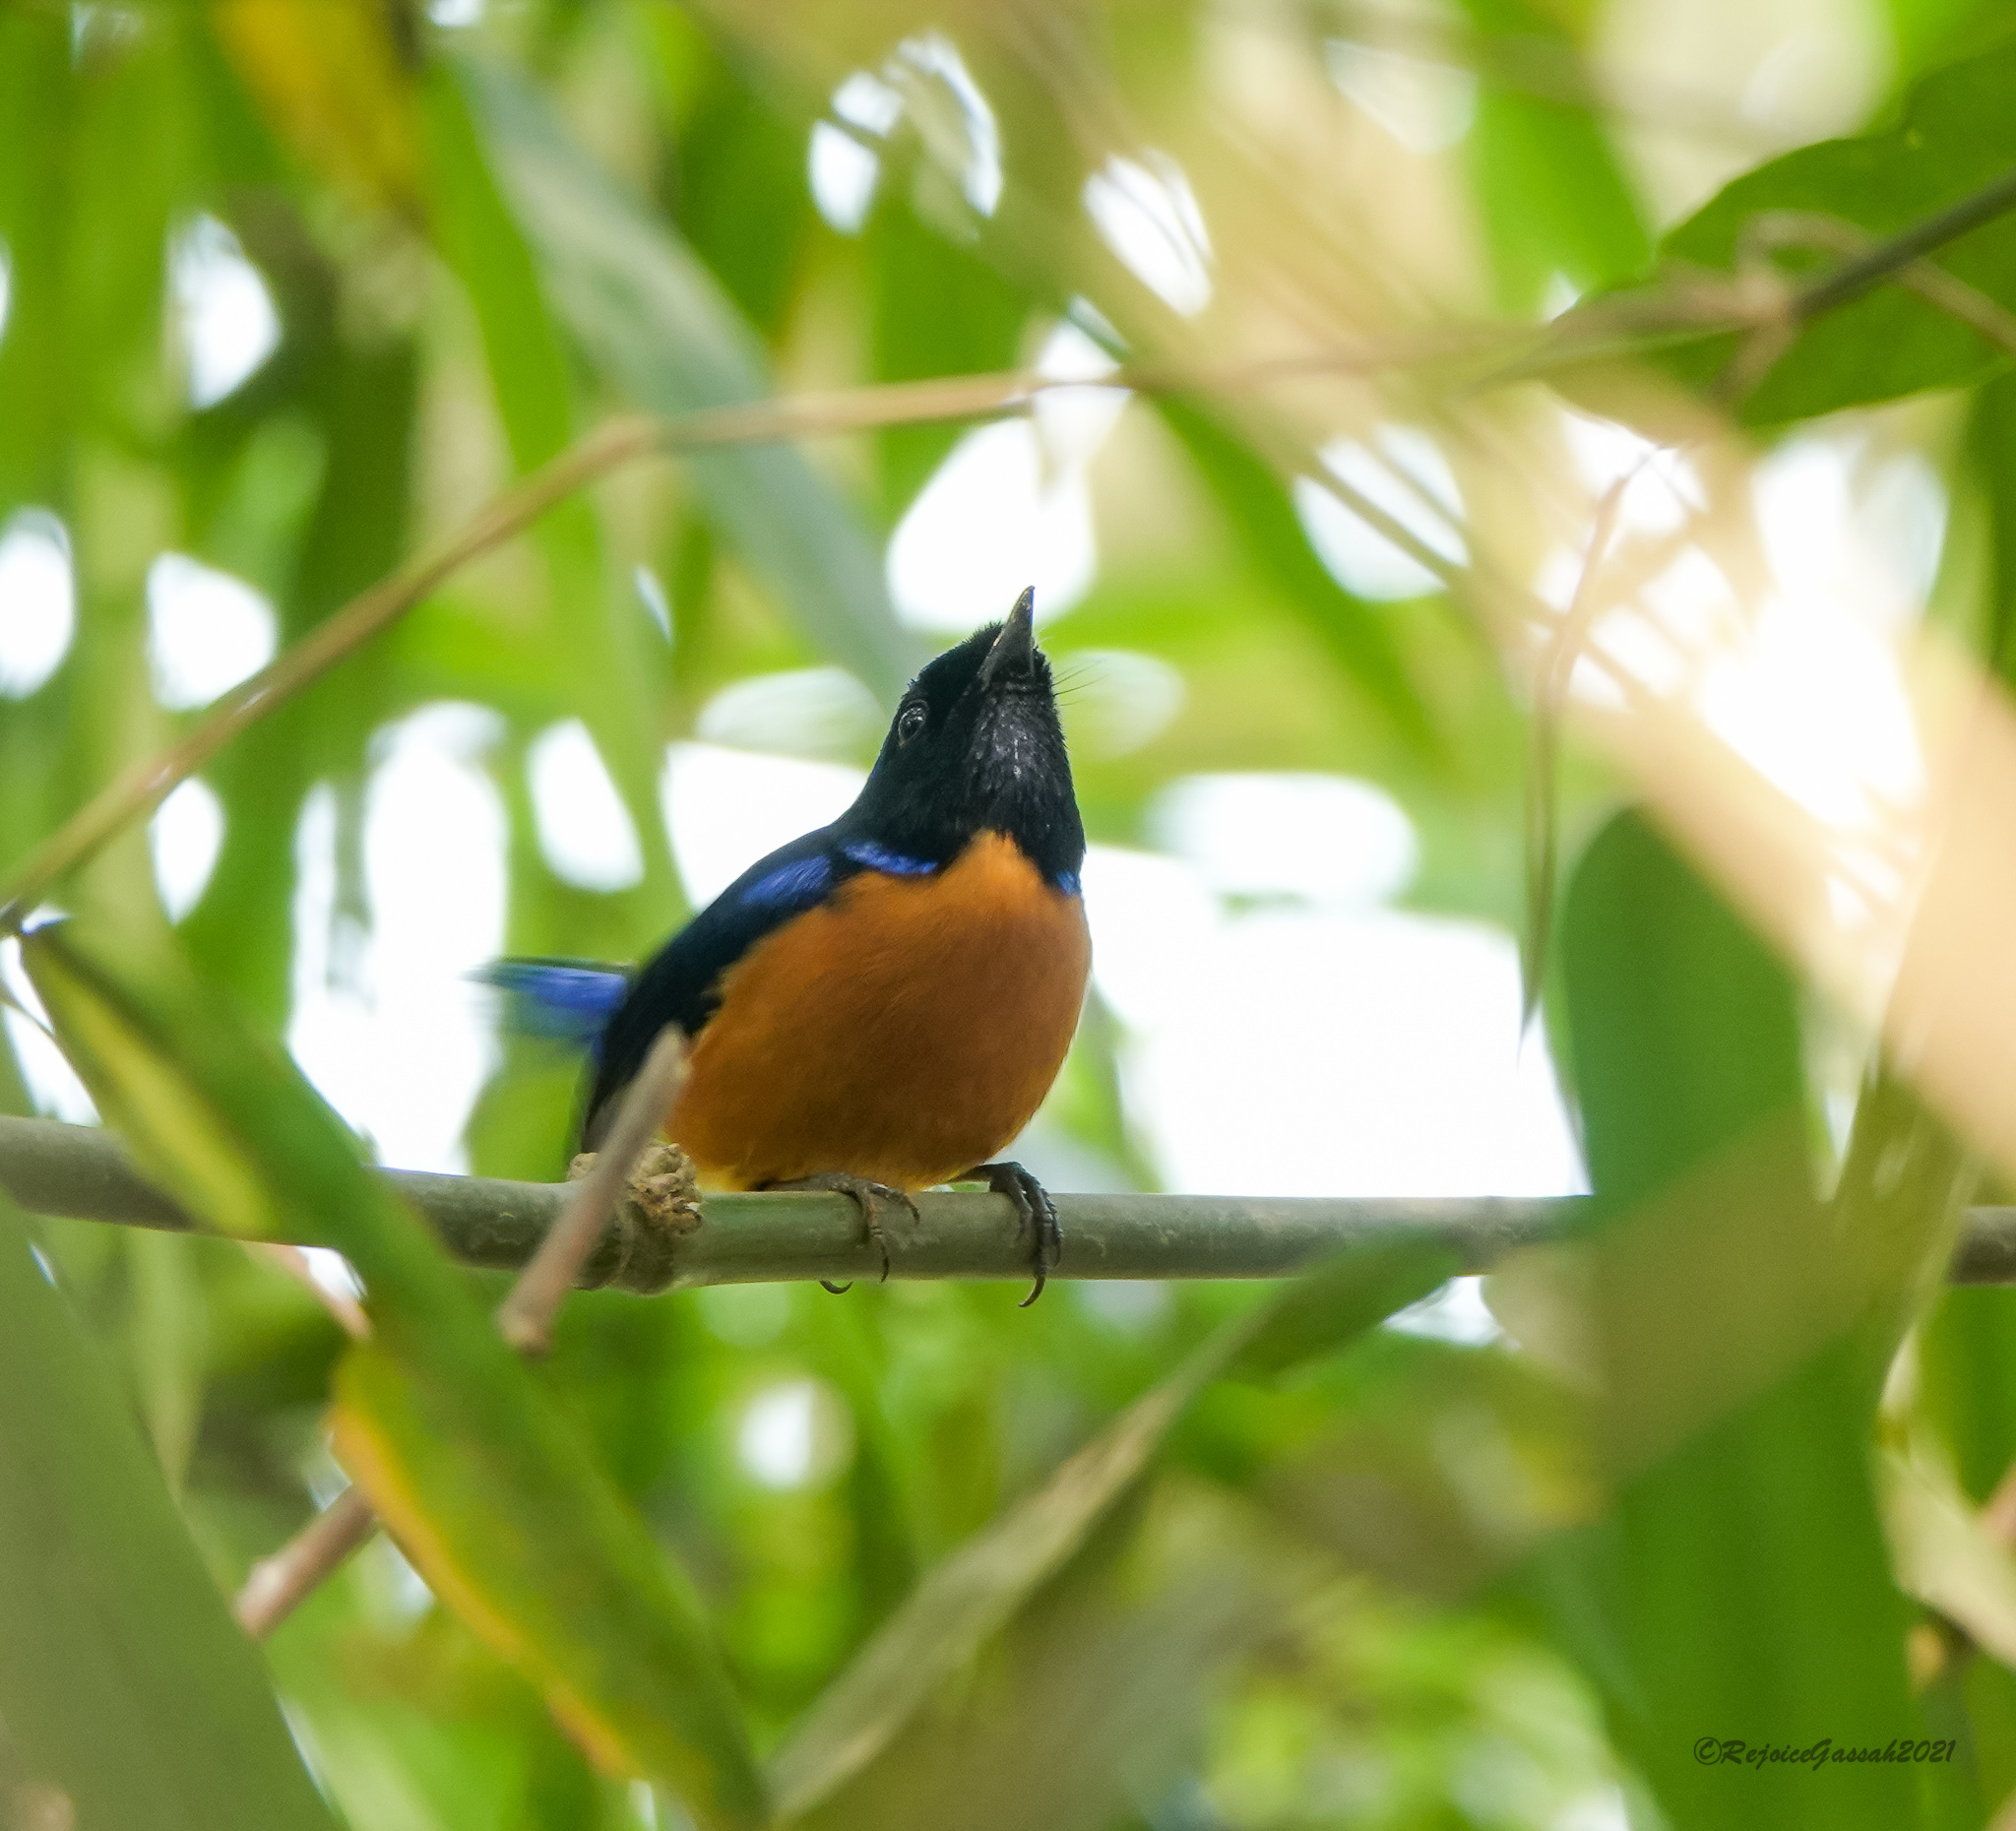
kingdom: Animalia
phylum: Chordata
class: Aves
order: Passeriformes
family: Muscicapidae
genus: Niltava
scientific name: Niltava sundara
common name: Rufous-bellied niltava
